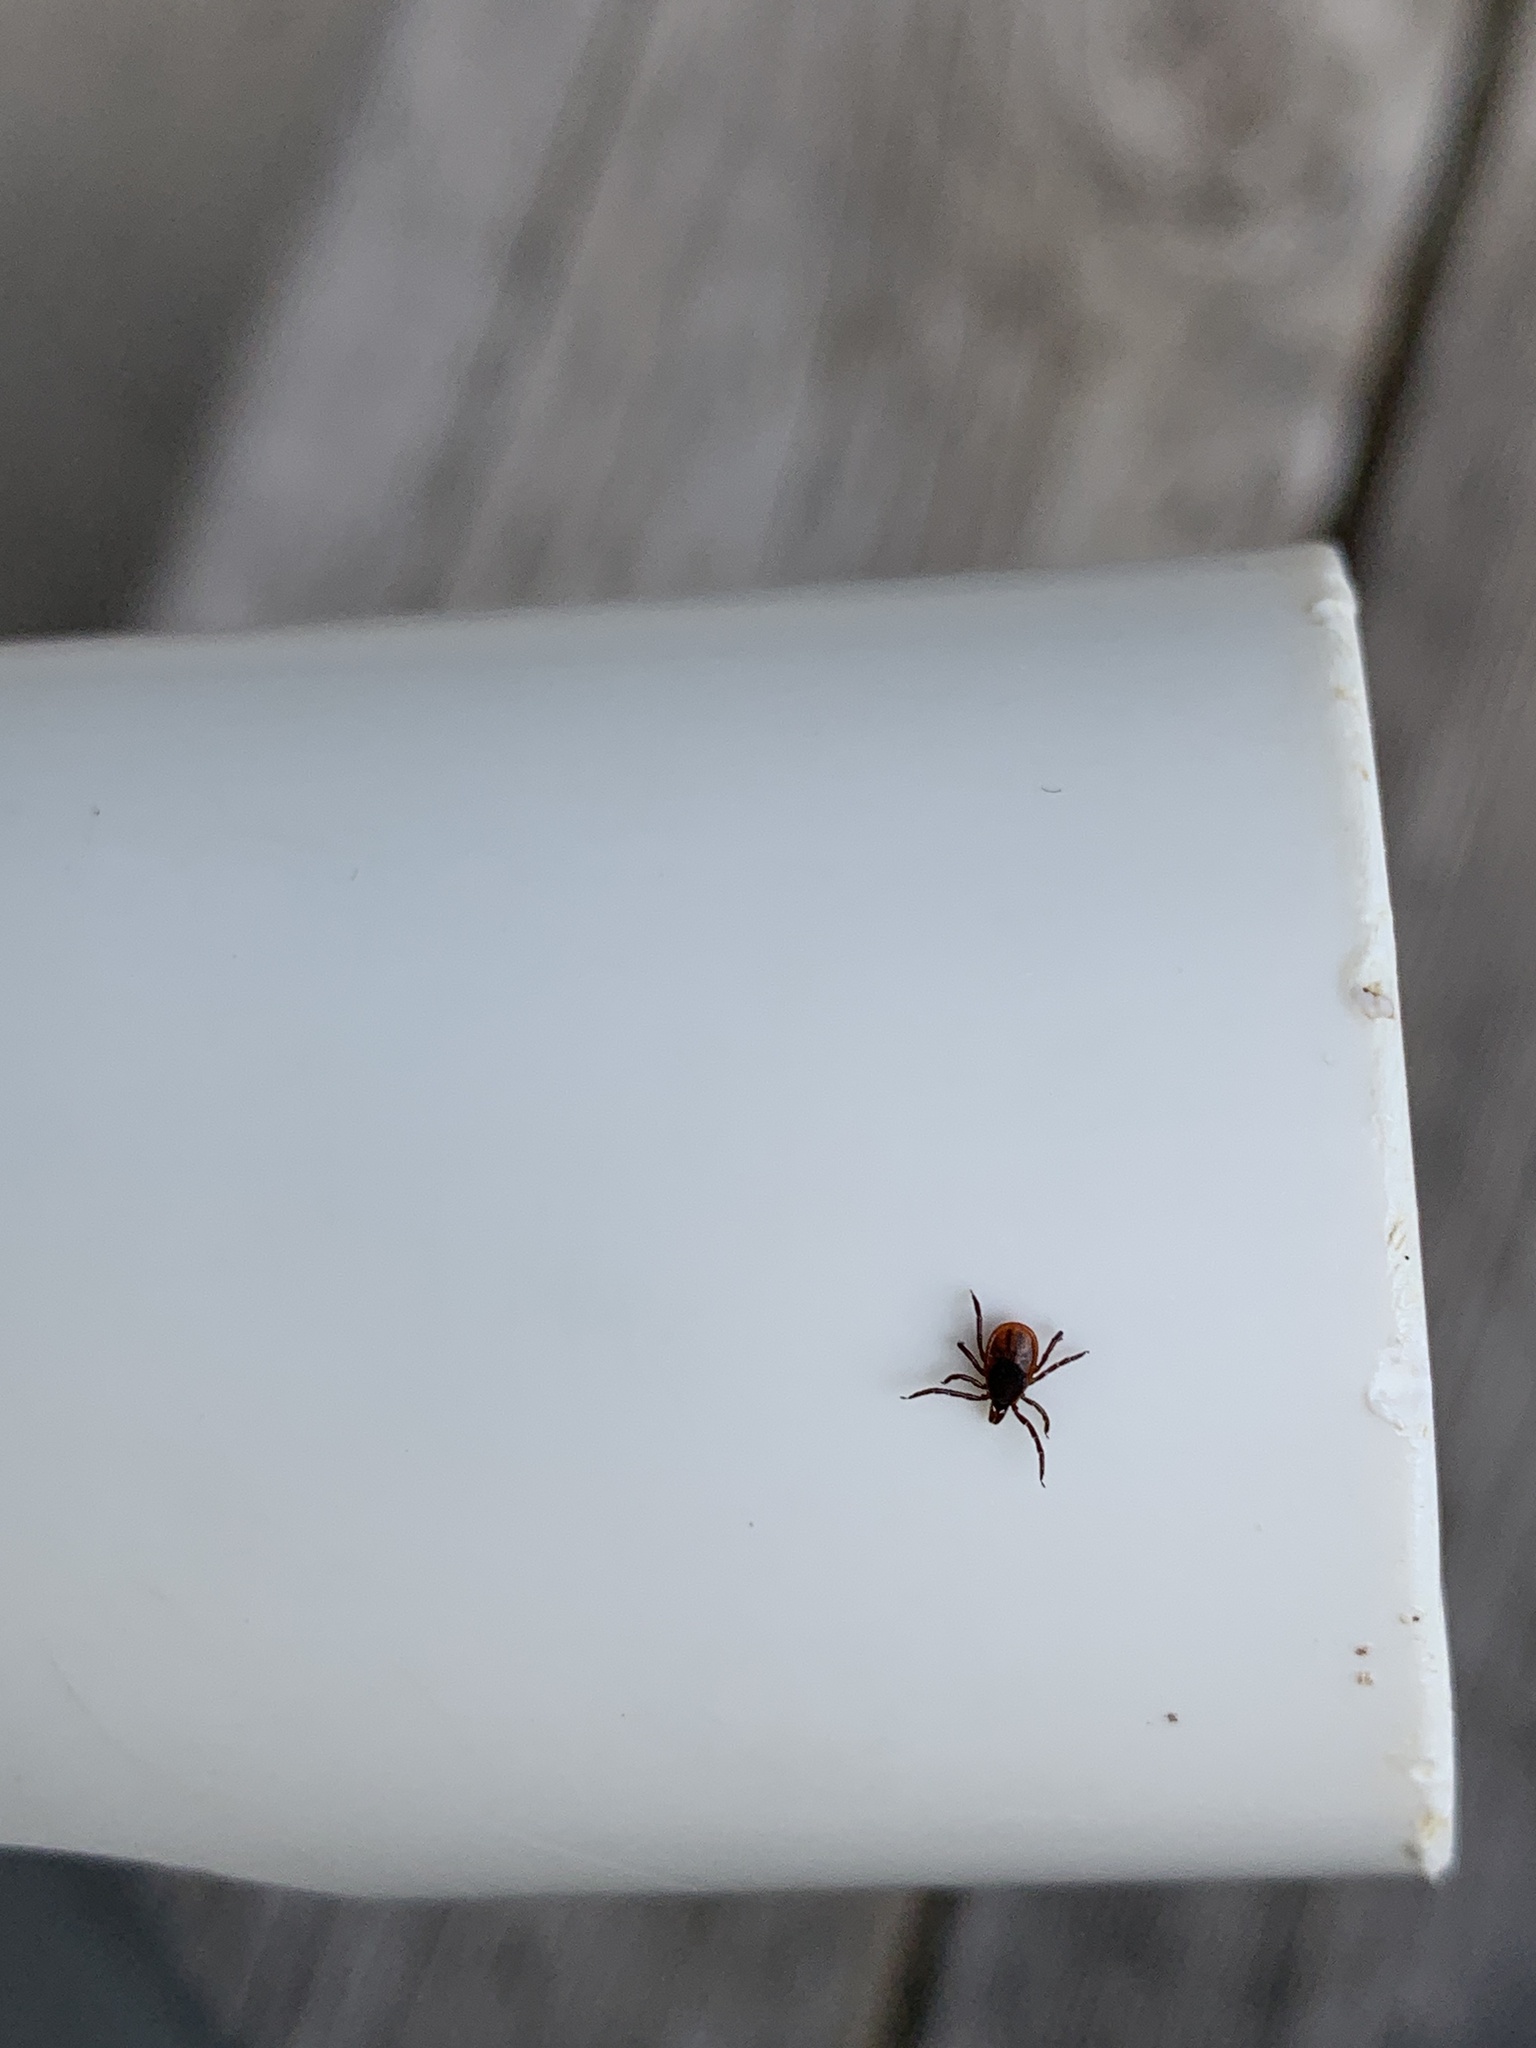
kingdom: Animalia
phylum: Arthropoda
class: Arachnida
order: Ixodida
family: Ixodidae
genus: Ixodes
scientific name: Ixodes scapularis
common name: Black legged tick
